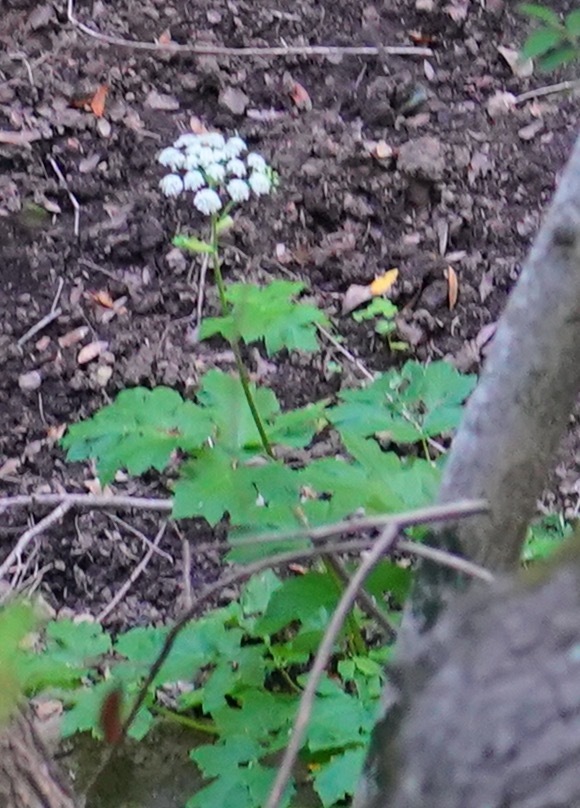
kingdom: Plantae
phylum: Tracheophyta
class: Magnoliopsida
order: Apiales
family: Apiaceae
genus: Heracleum
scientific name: Heracleum maximum
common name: American cow parsnip
